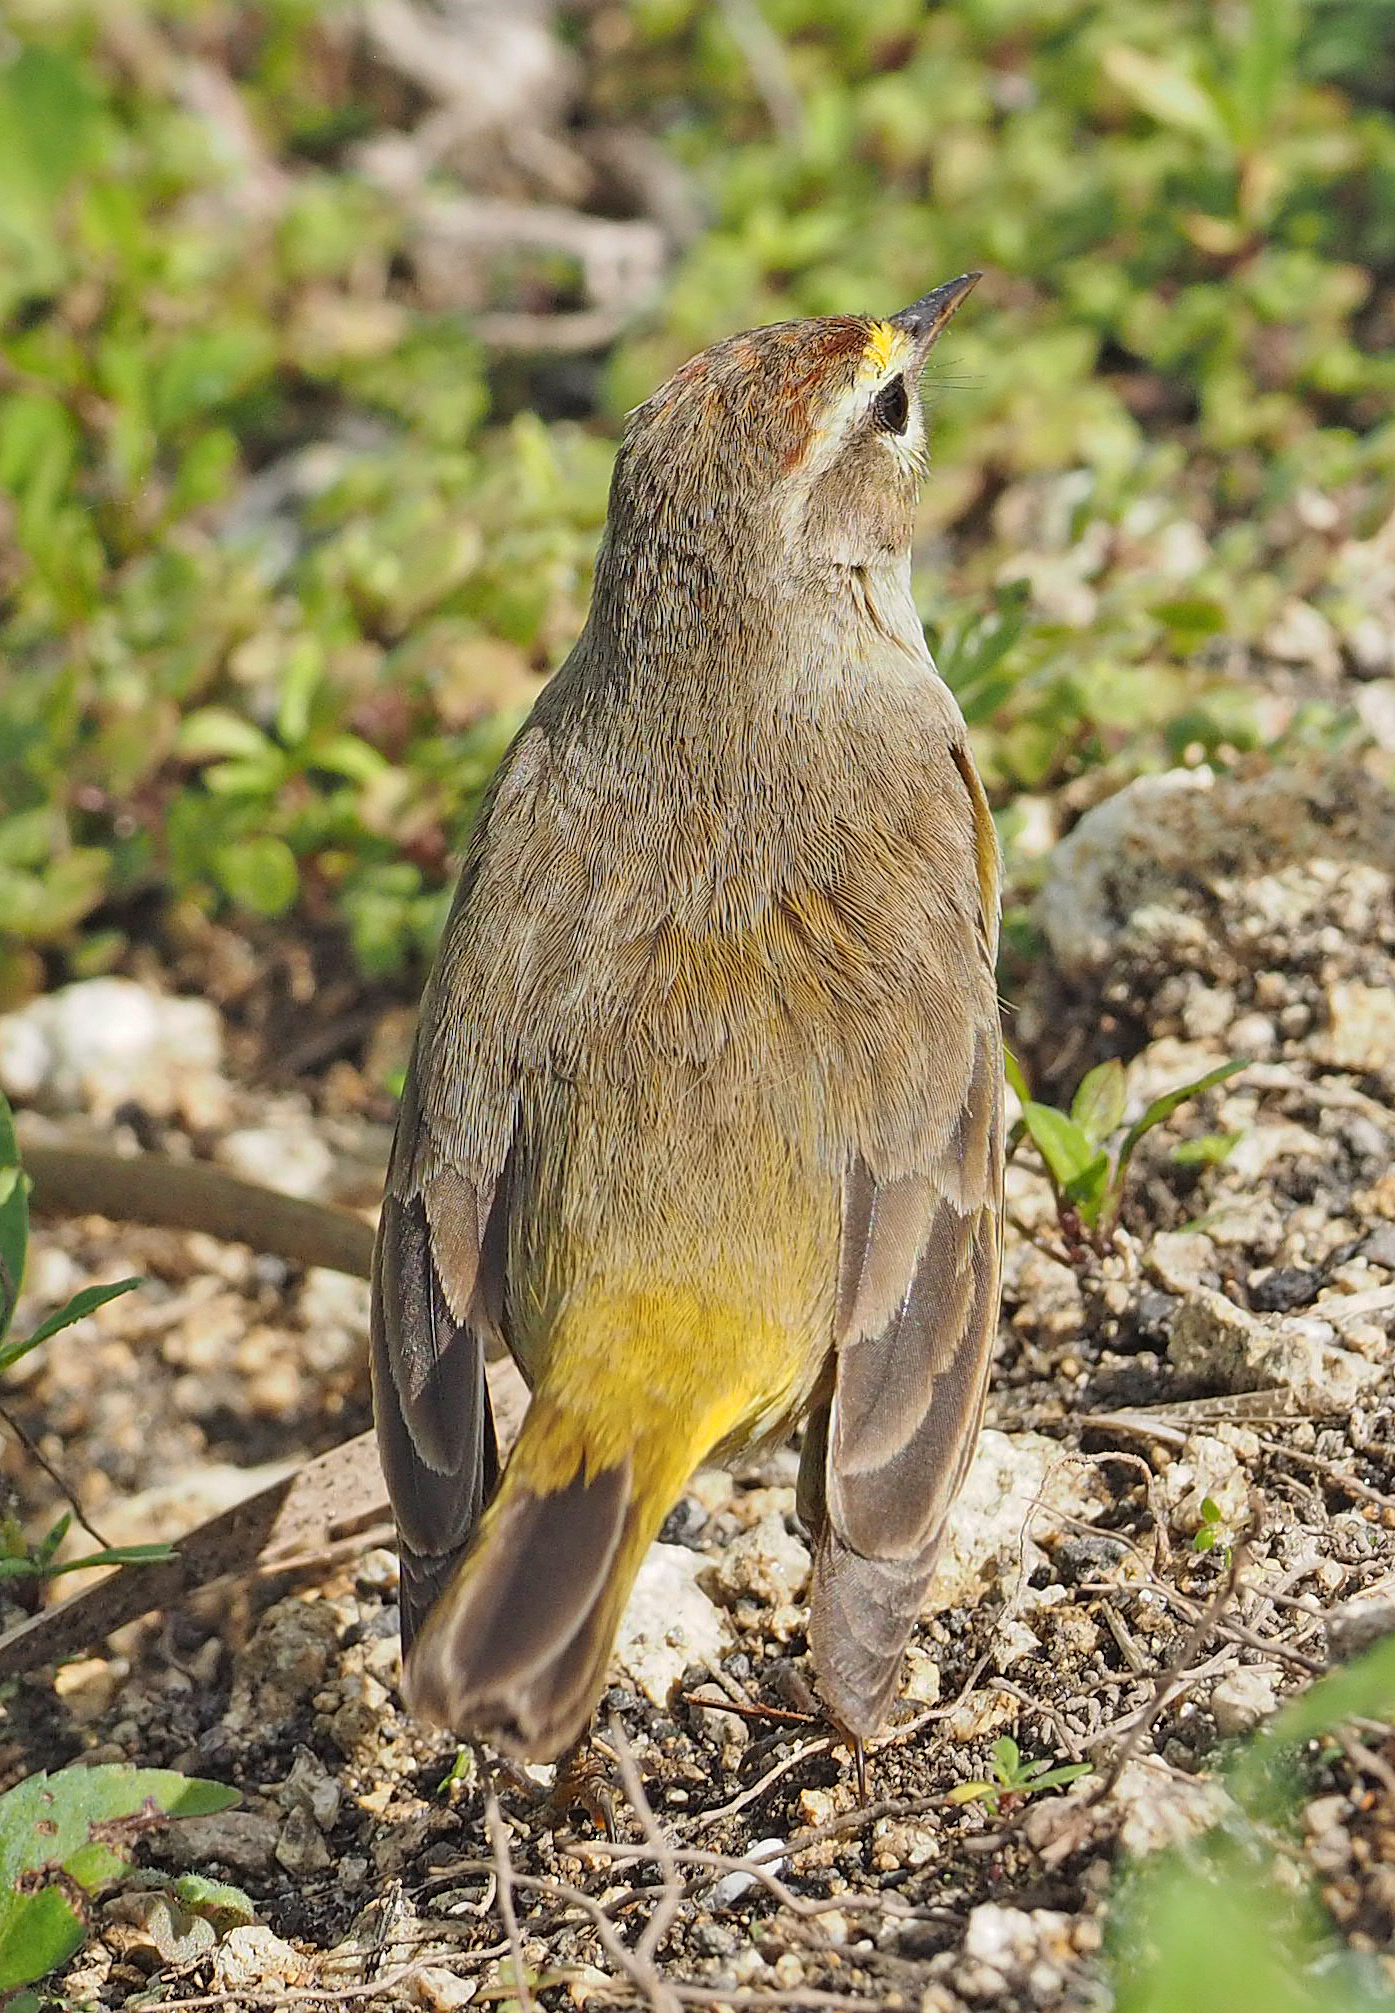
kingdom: Animalia
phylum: Chordata
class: Aves
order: Passeriformes
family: Parulidae
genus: Setophaga
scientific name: Setophaga palmarum
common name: Palm warbler
